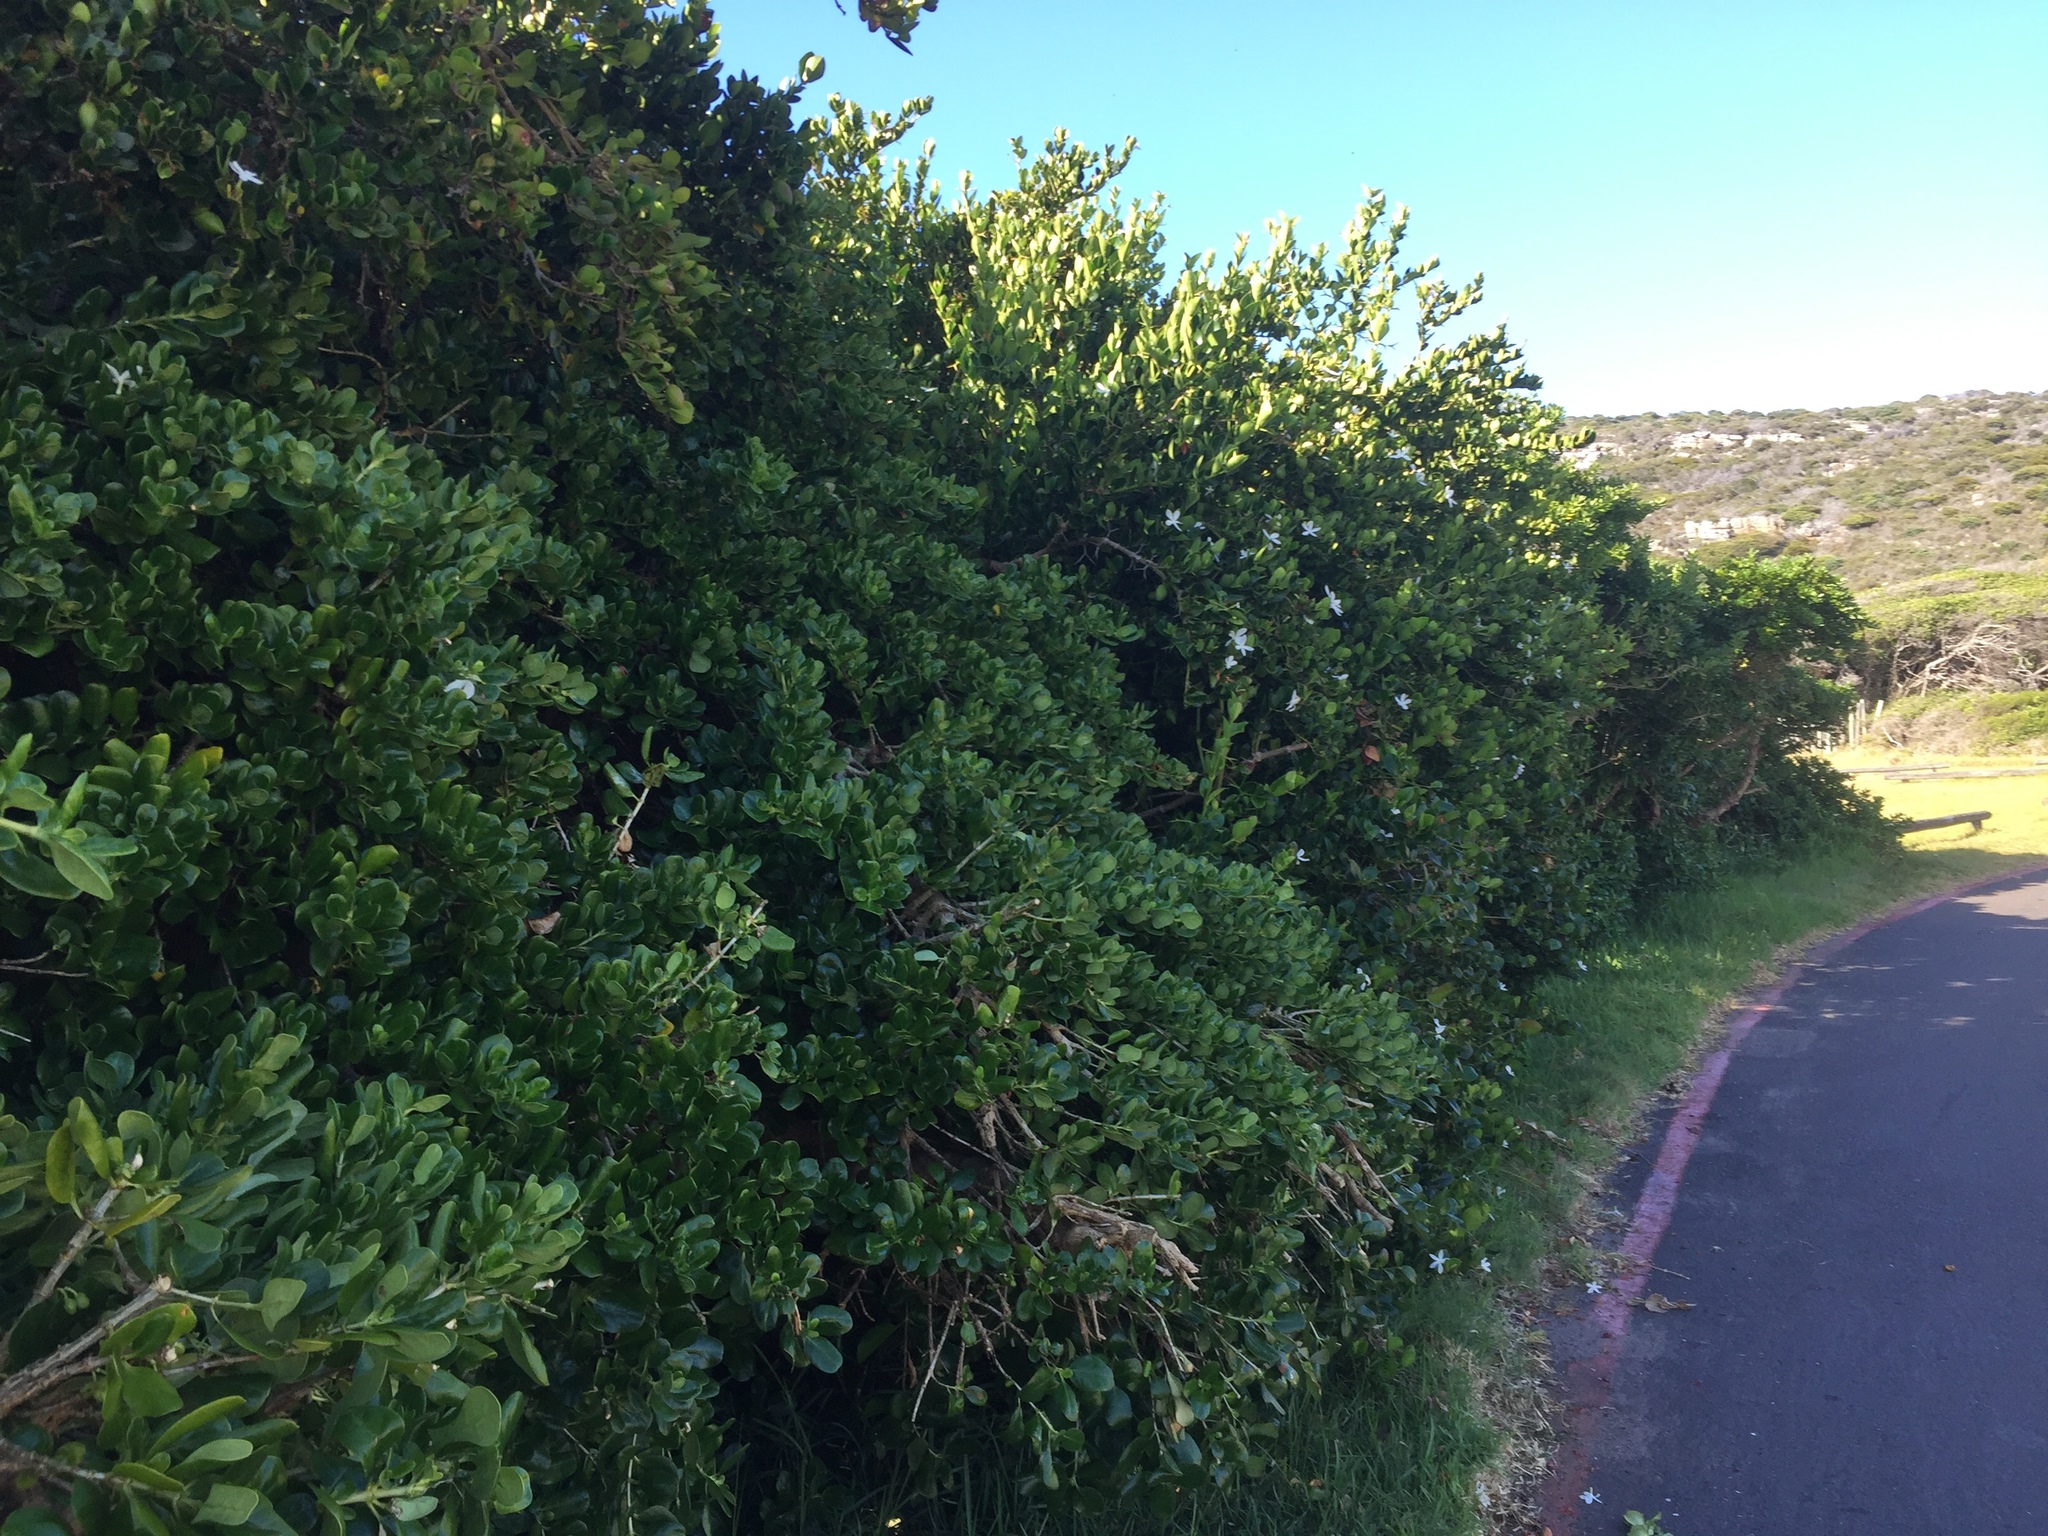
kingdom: Plantae
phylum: Tracheophyta
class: Magnoliopsida
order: Gentianales
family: Apocynaceae
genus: Carissa
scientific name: Carissa macrocarpa
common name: Natal plum
